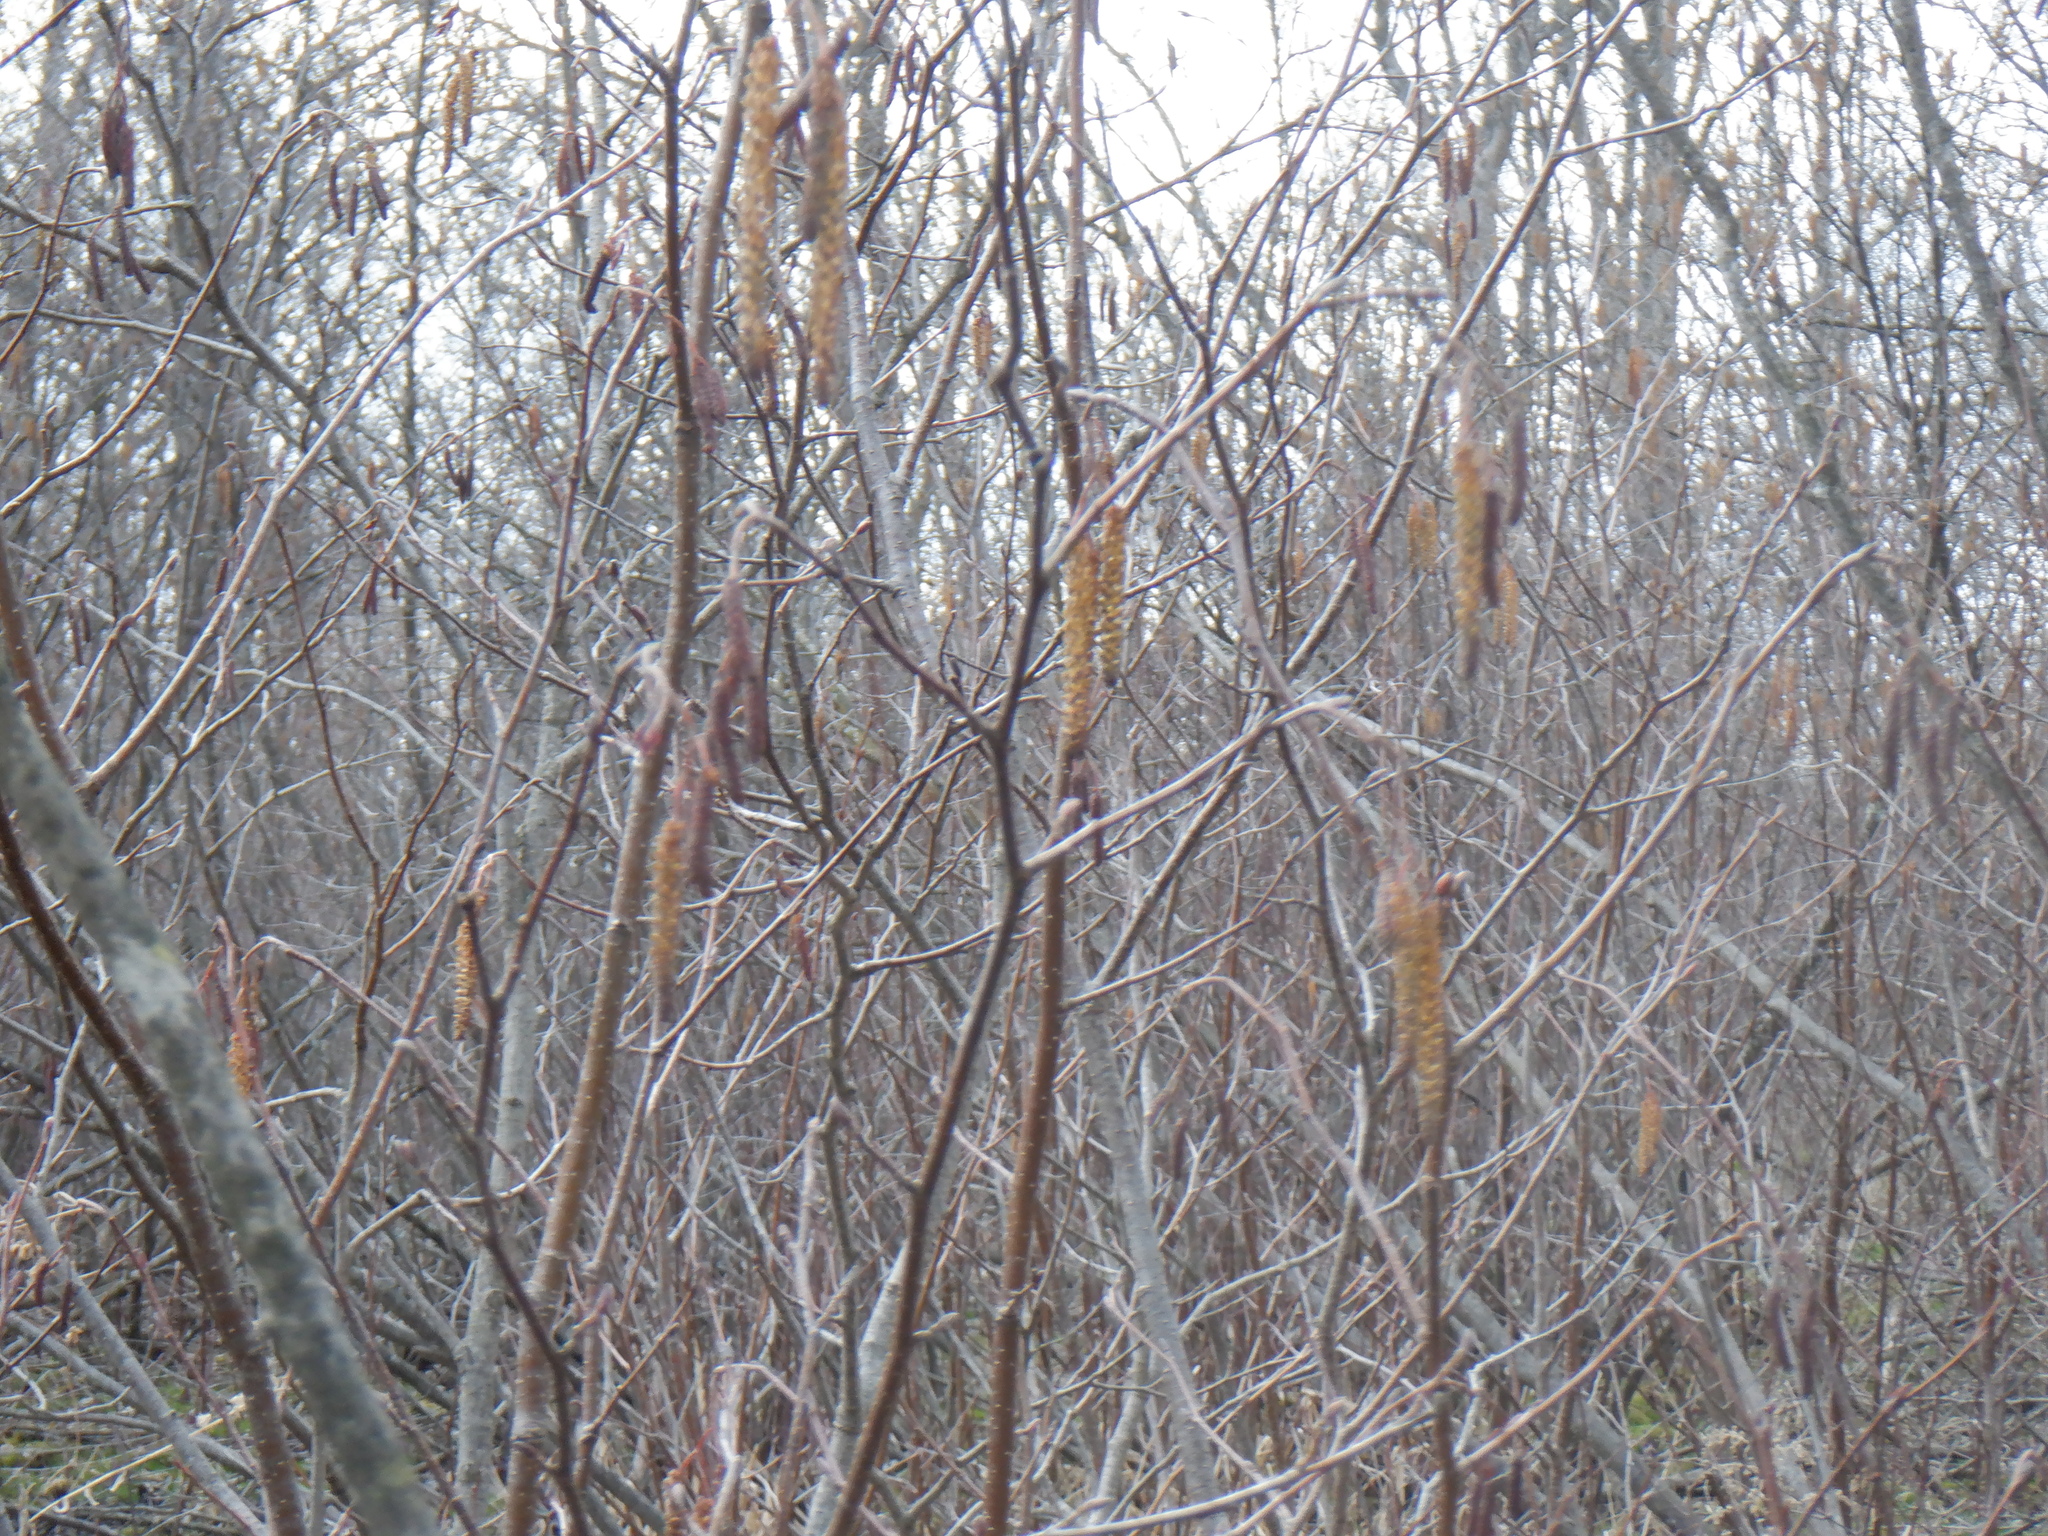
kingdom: Plantae
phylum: Tracheophyta
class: Magnoliopsida
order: Fagales
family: Betulaceae
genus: Alnus
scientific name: Alnus incana
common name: Grey alder
